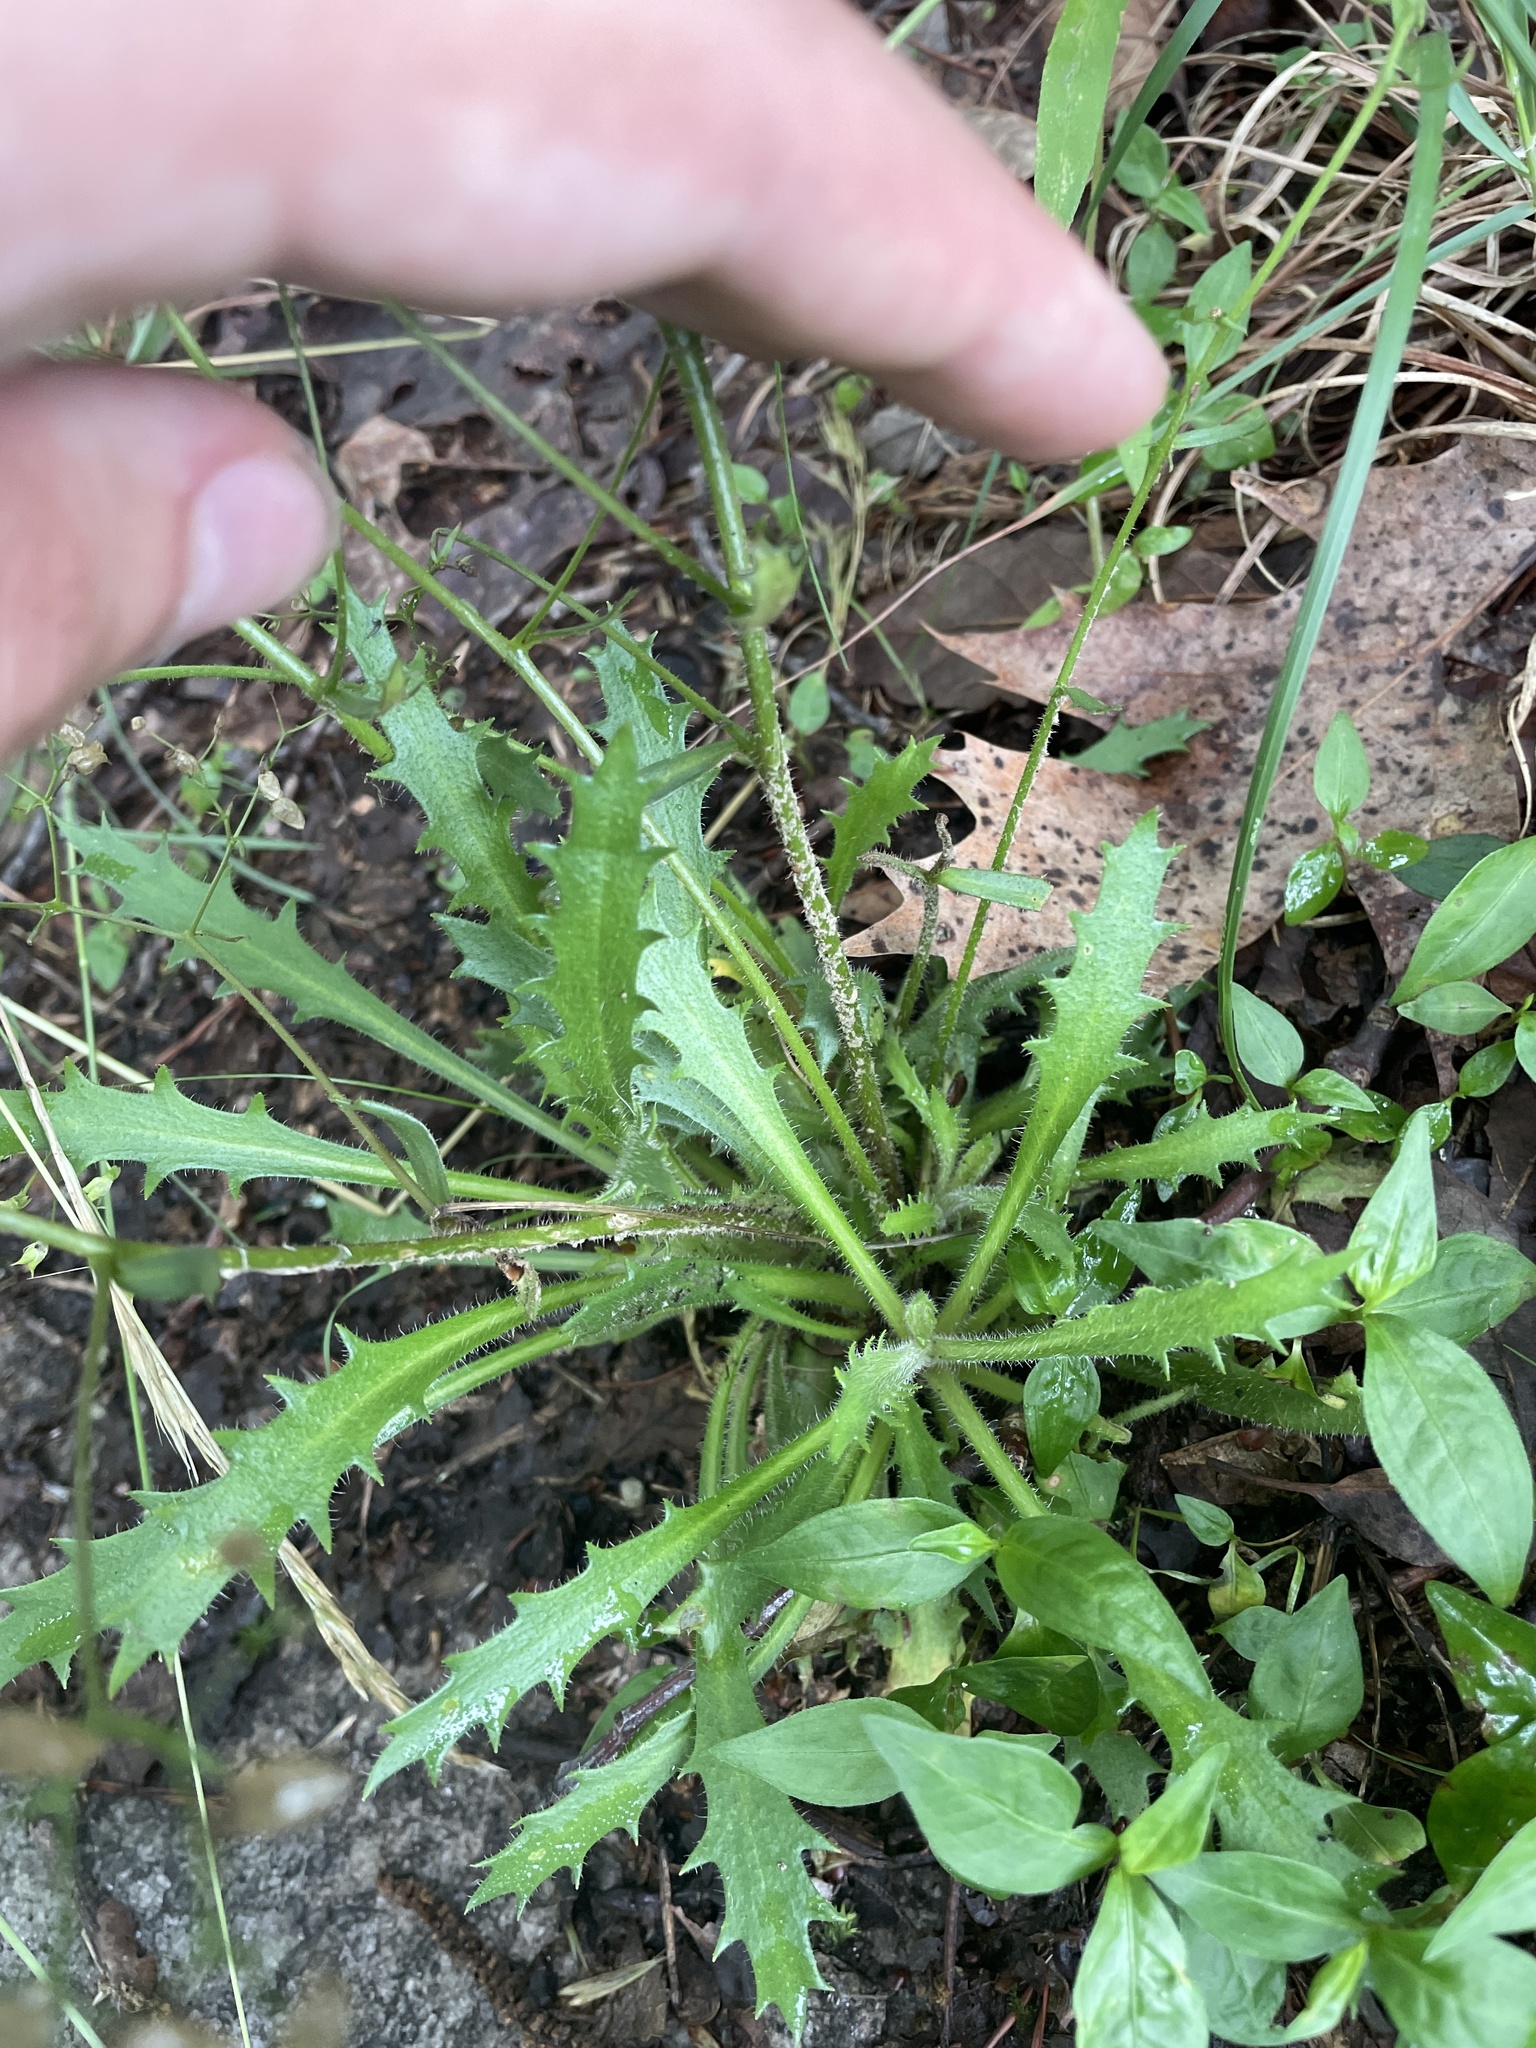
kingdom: Plantae
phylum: Tracheophyta
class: Magnoliopsida
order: Saxifragales
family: Saxifragaceae
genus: Micranthes
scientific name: Micranthes petiolaris
